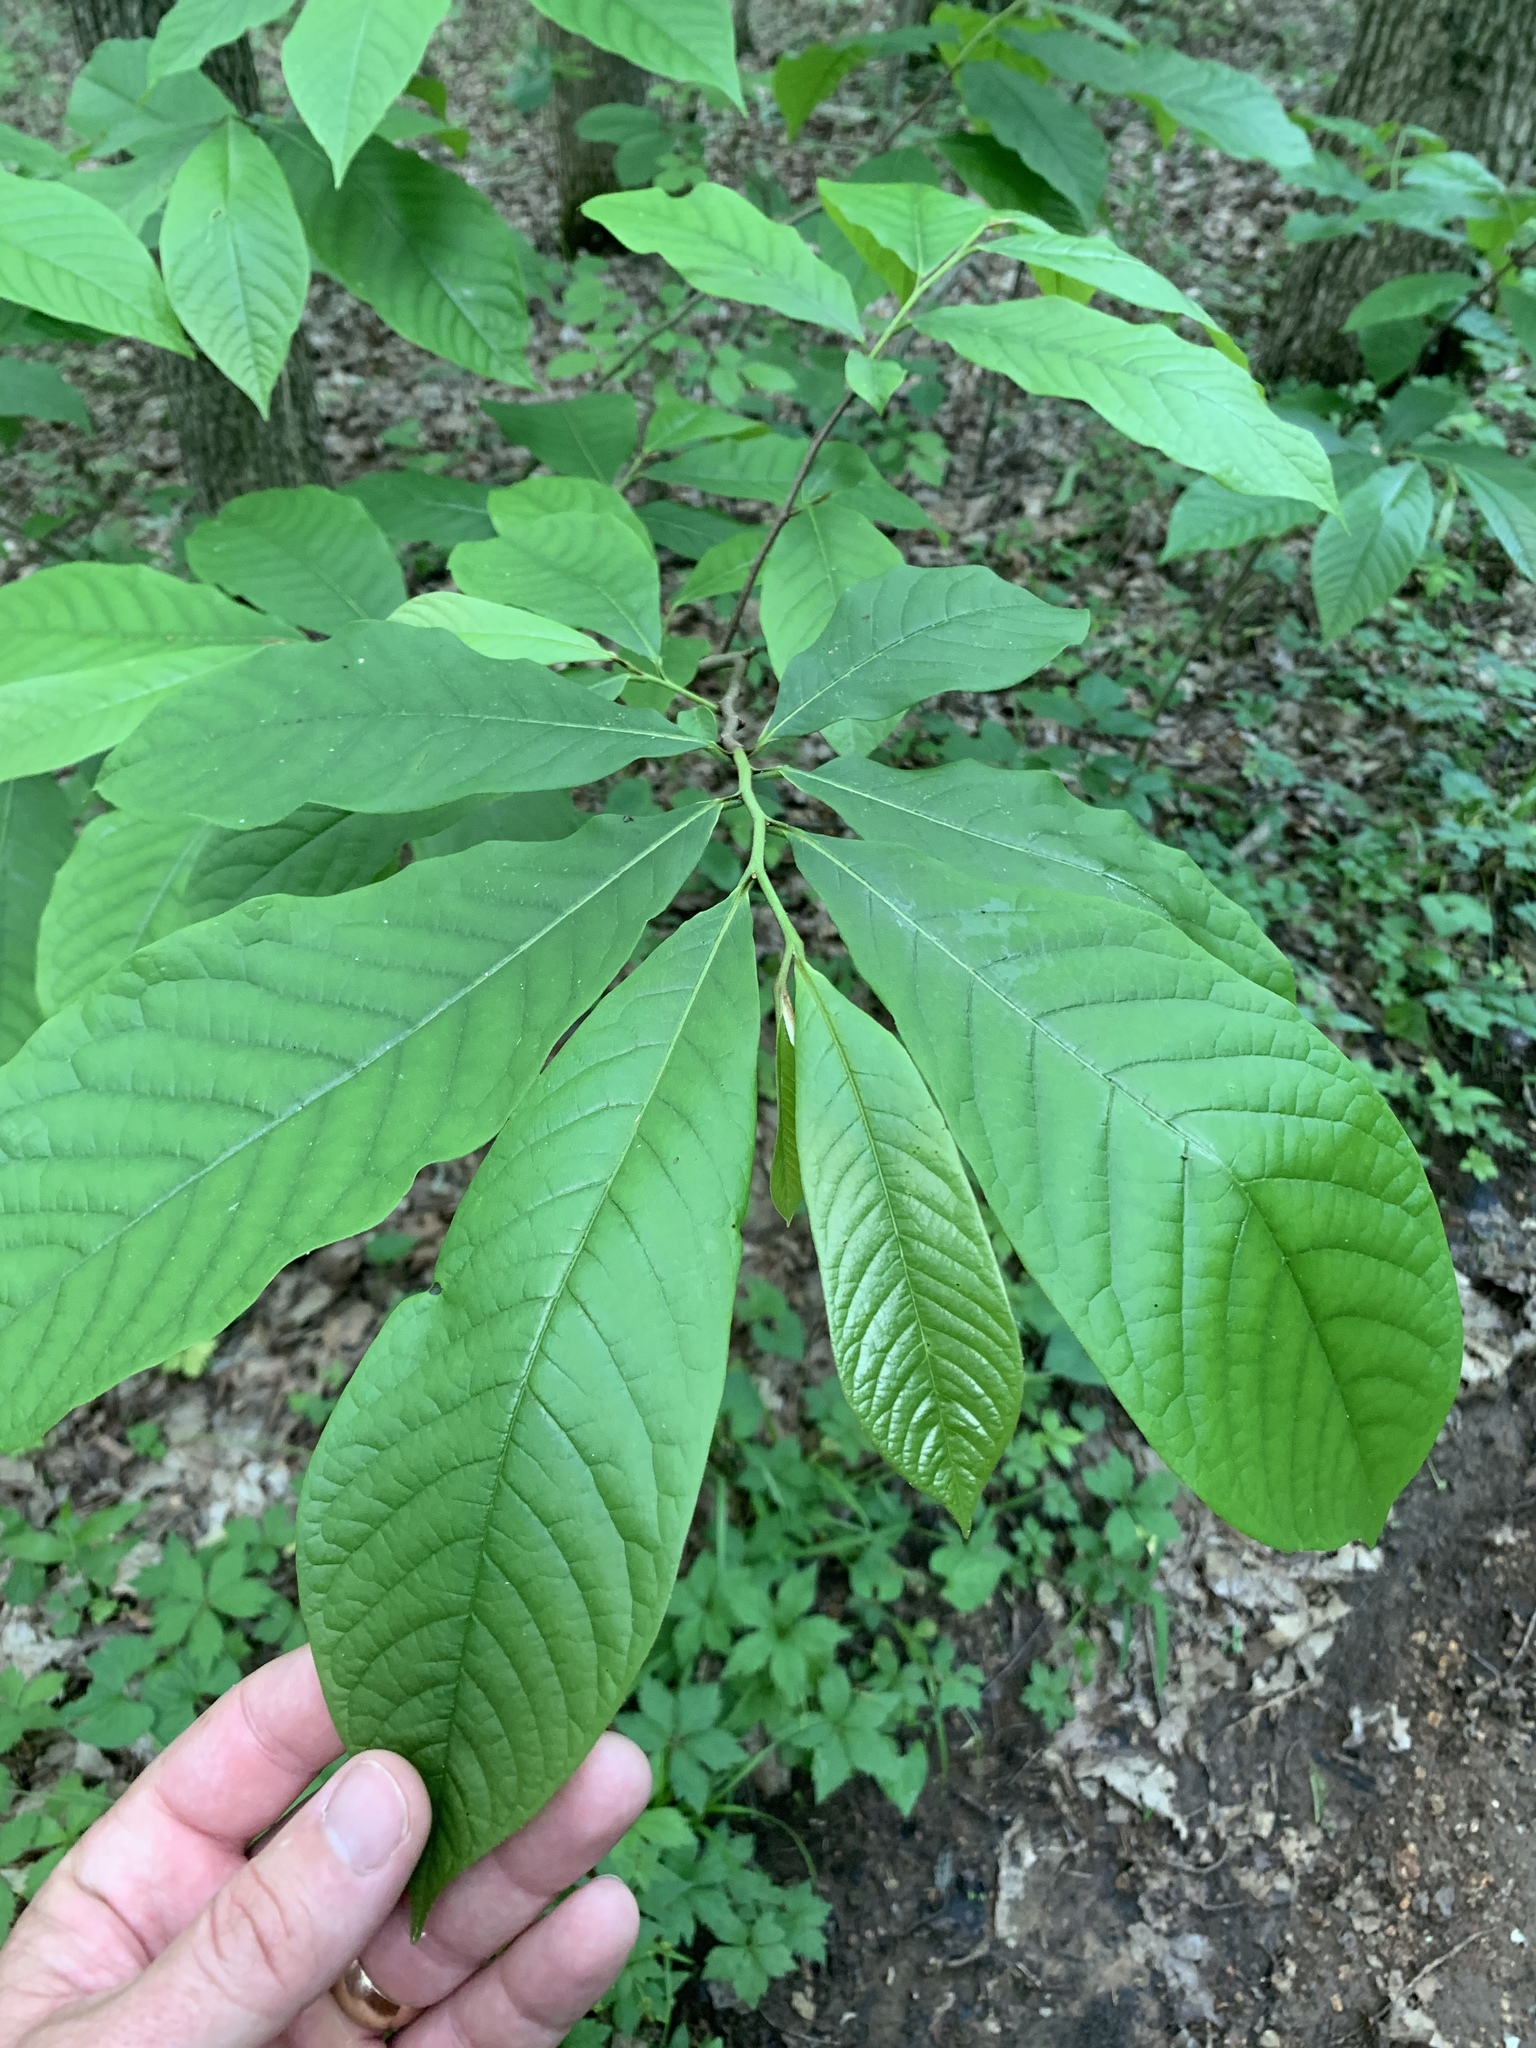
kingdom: Plantae
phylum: Tracheophyta
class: Magnoliopsida
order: Magnoliales
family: Annonaceae
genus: Asimina
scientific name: Asimina triloba
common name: Dog-banana
